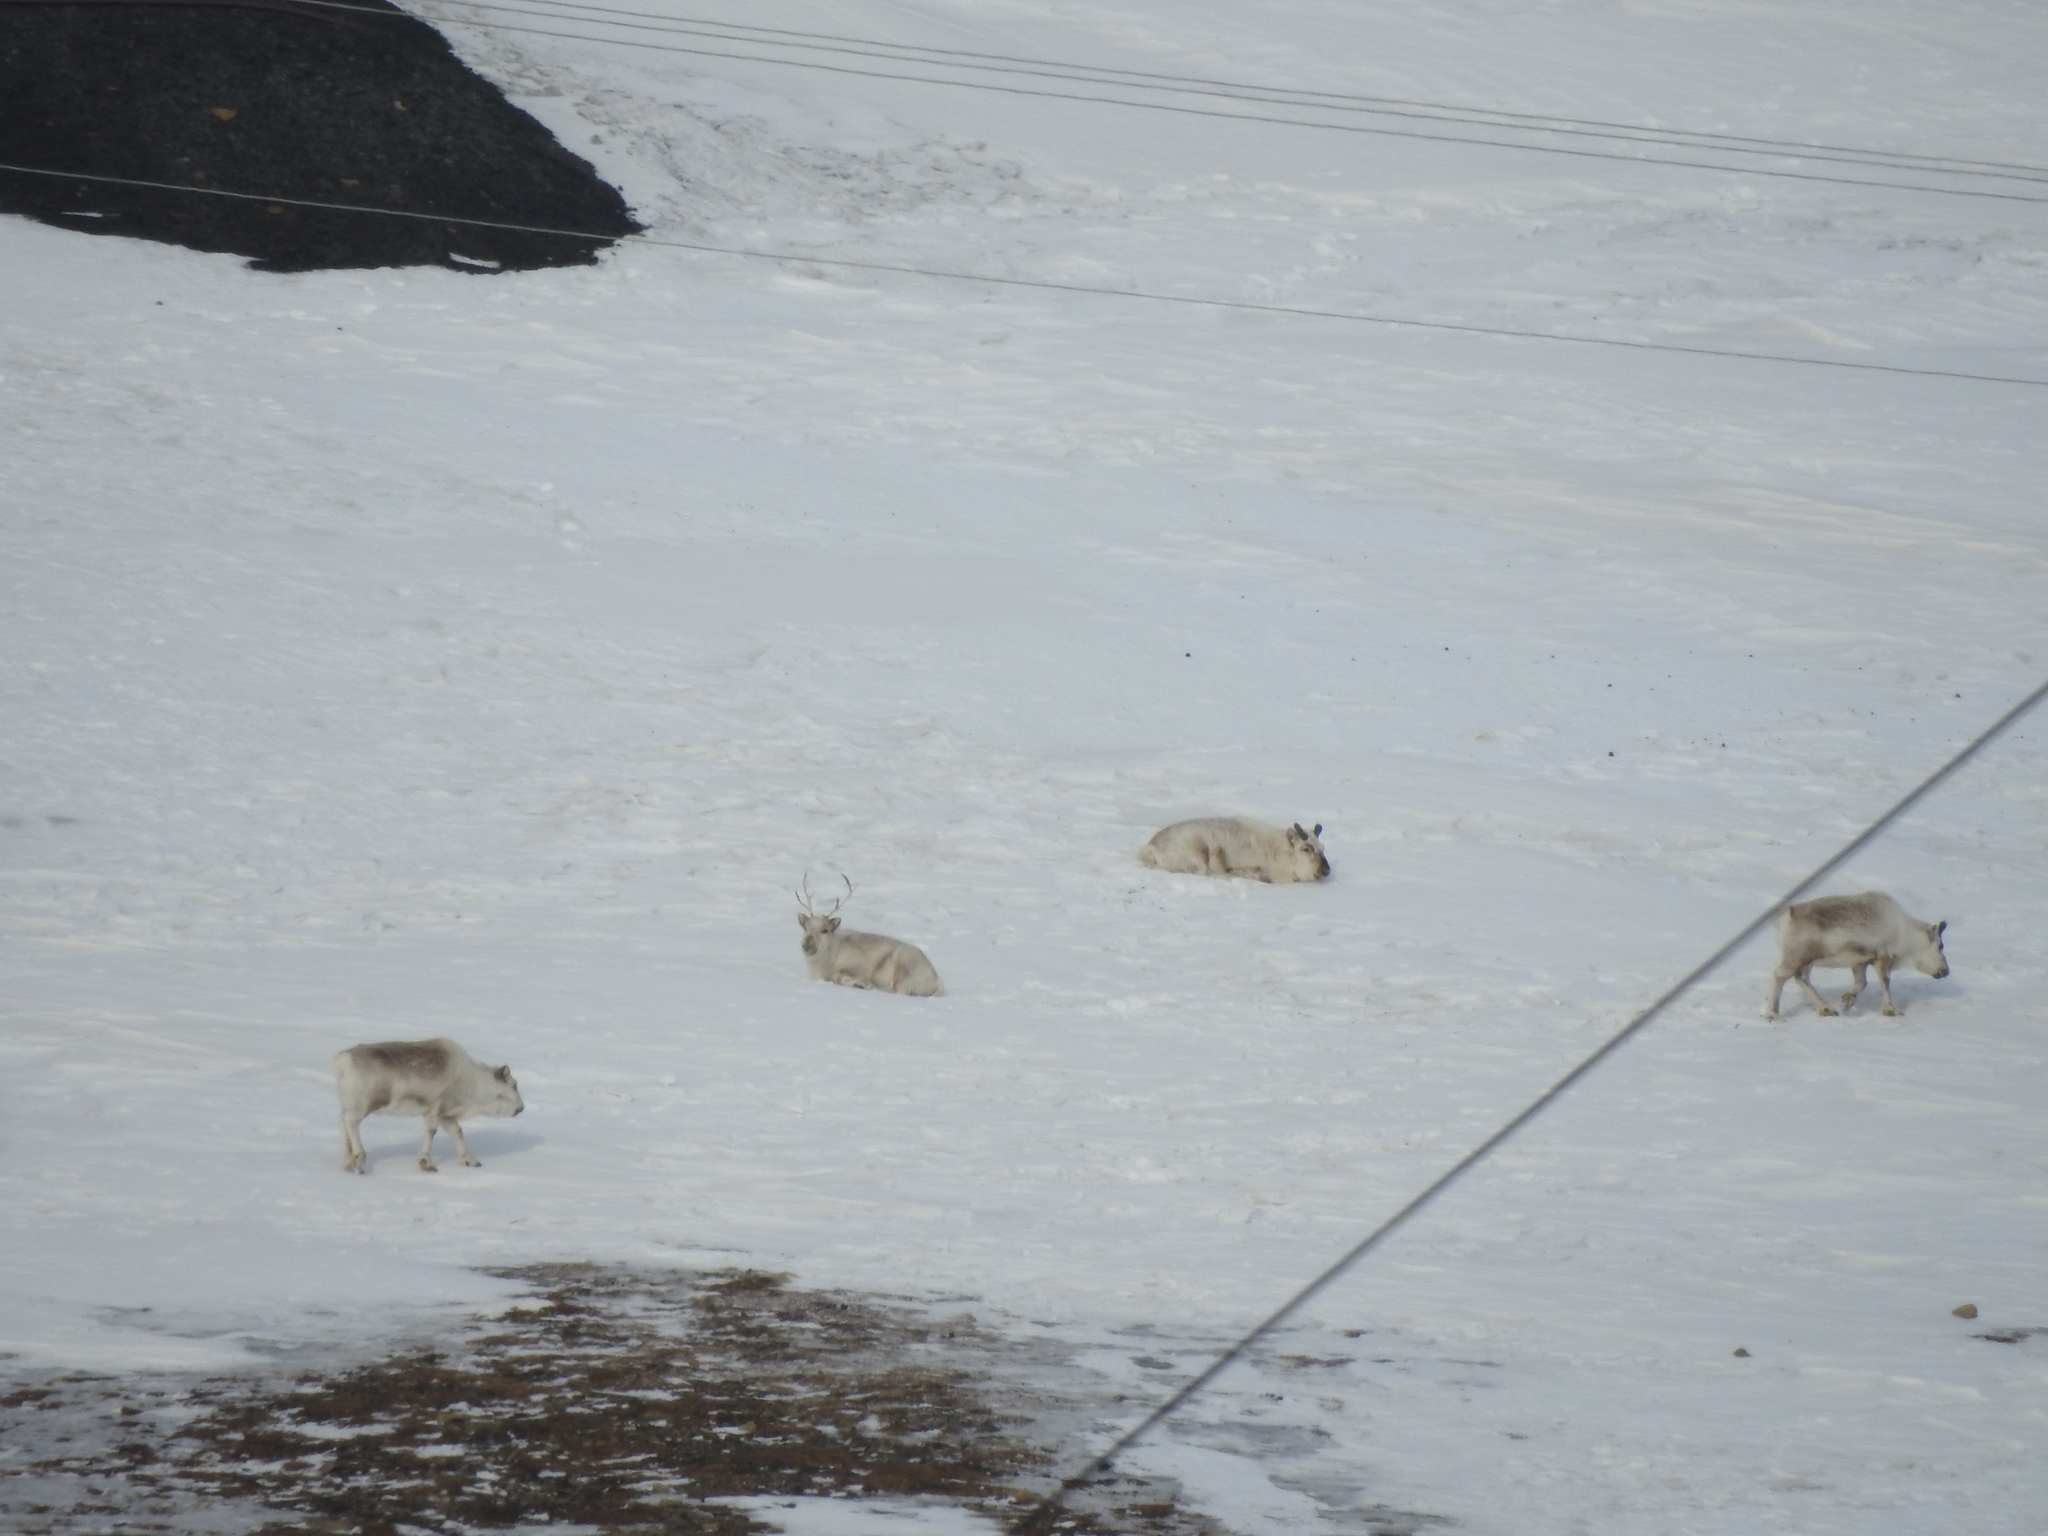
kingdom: Animalia
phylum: Chordata
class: Mammalia
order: Artiodactyla
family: Cervidae
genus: Rangifer
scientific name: Rangifer tarandus
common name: Reindeer
